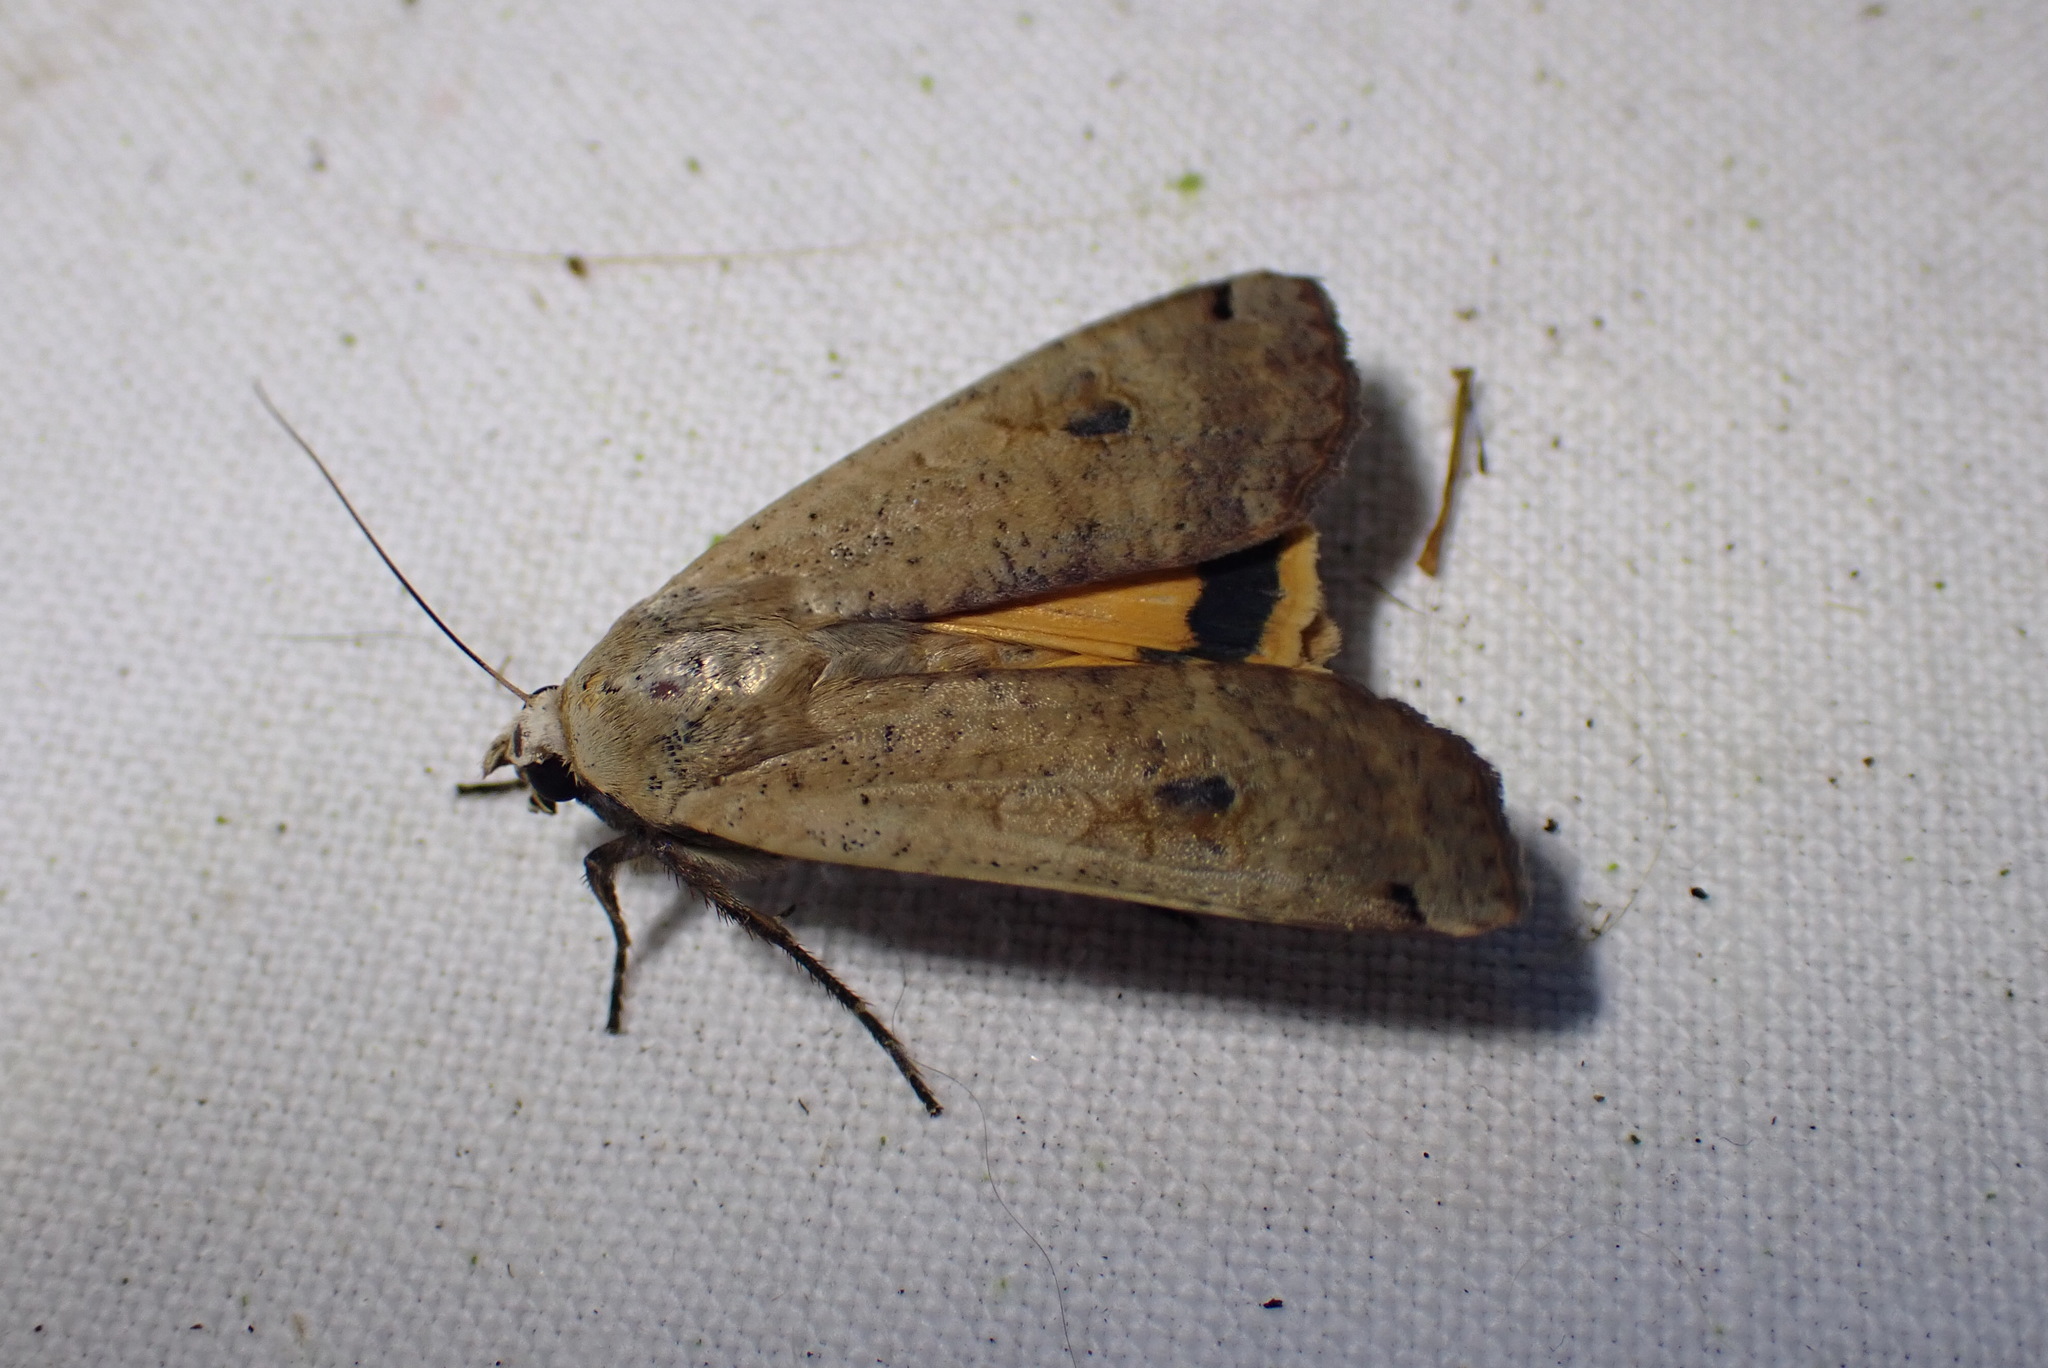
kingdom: Animalia
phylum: Arthropoda
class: Insecta
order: Lepidoptera
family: Noctuidae
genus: Noctua
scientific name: Noctua pronuba
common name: Large yellow underwing
